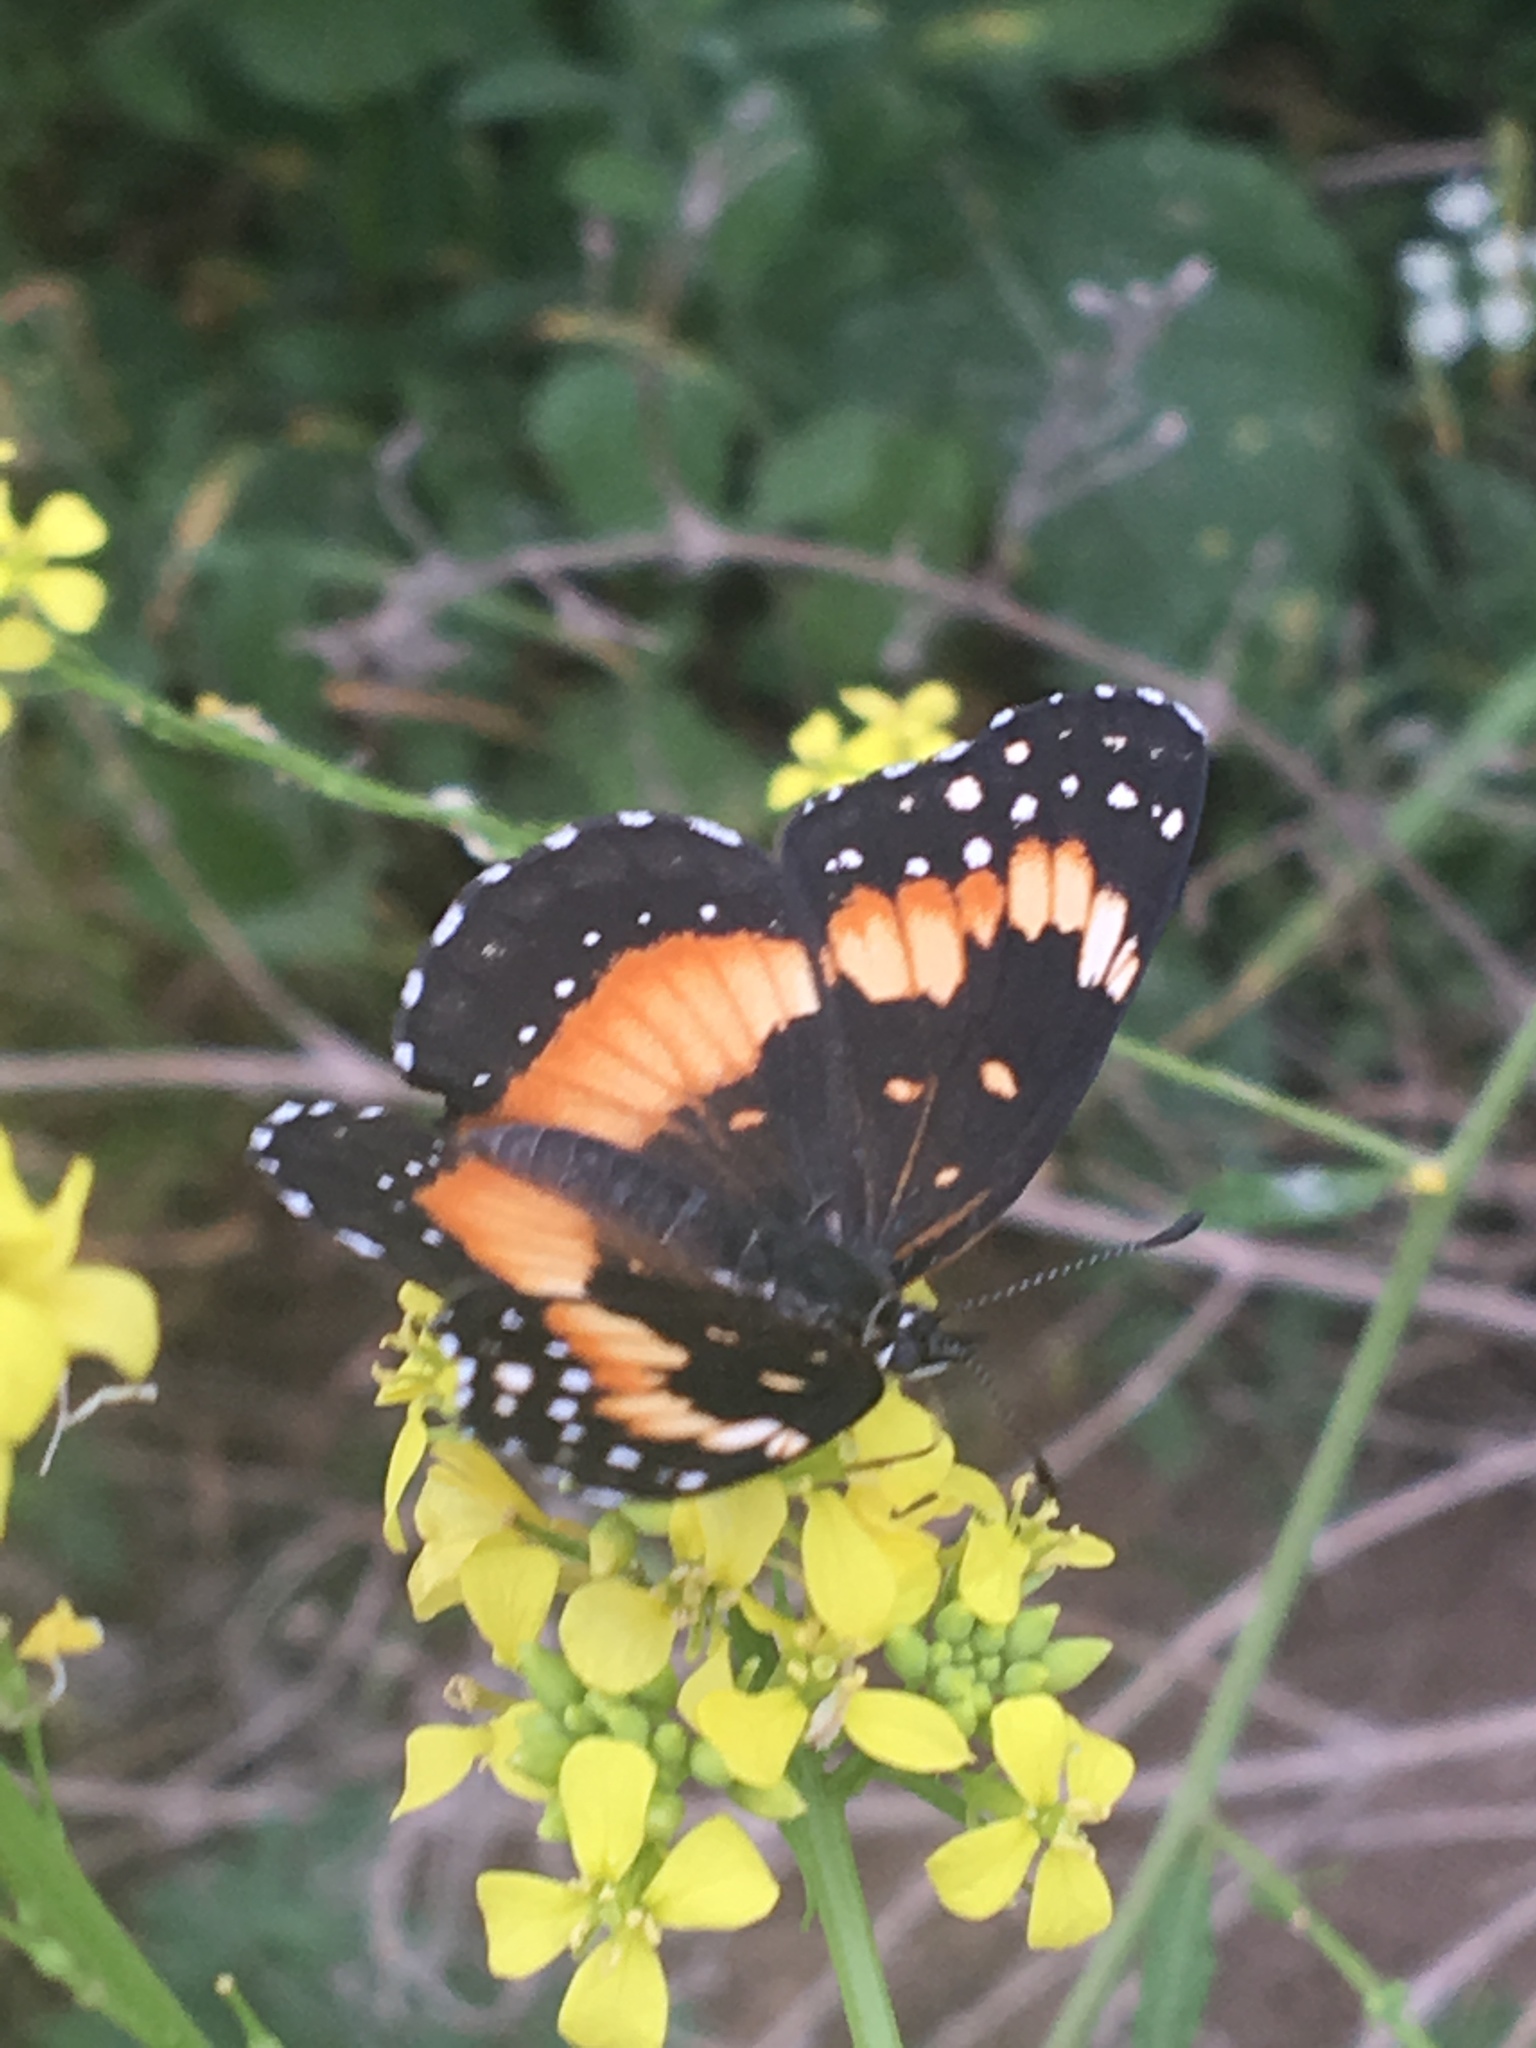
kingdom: Animalia
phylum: Arthropoda
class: Insecta
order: Lepidoptera
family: Nymphalidae
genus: Chlosyne
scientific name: Chlosyne lacinia
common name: Bordered patch
